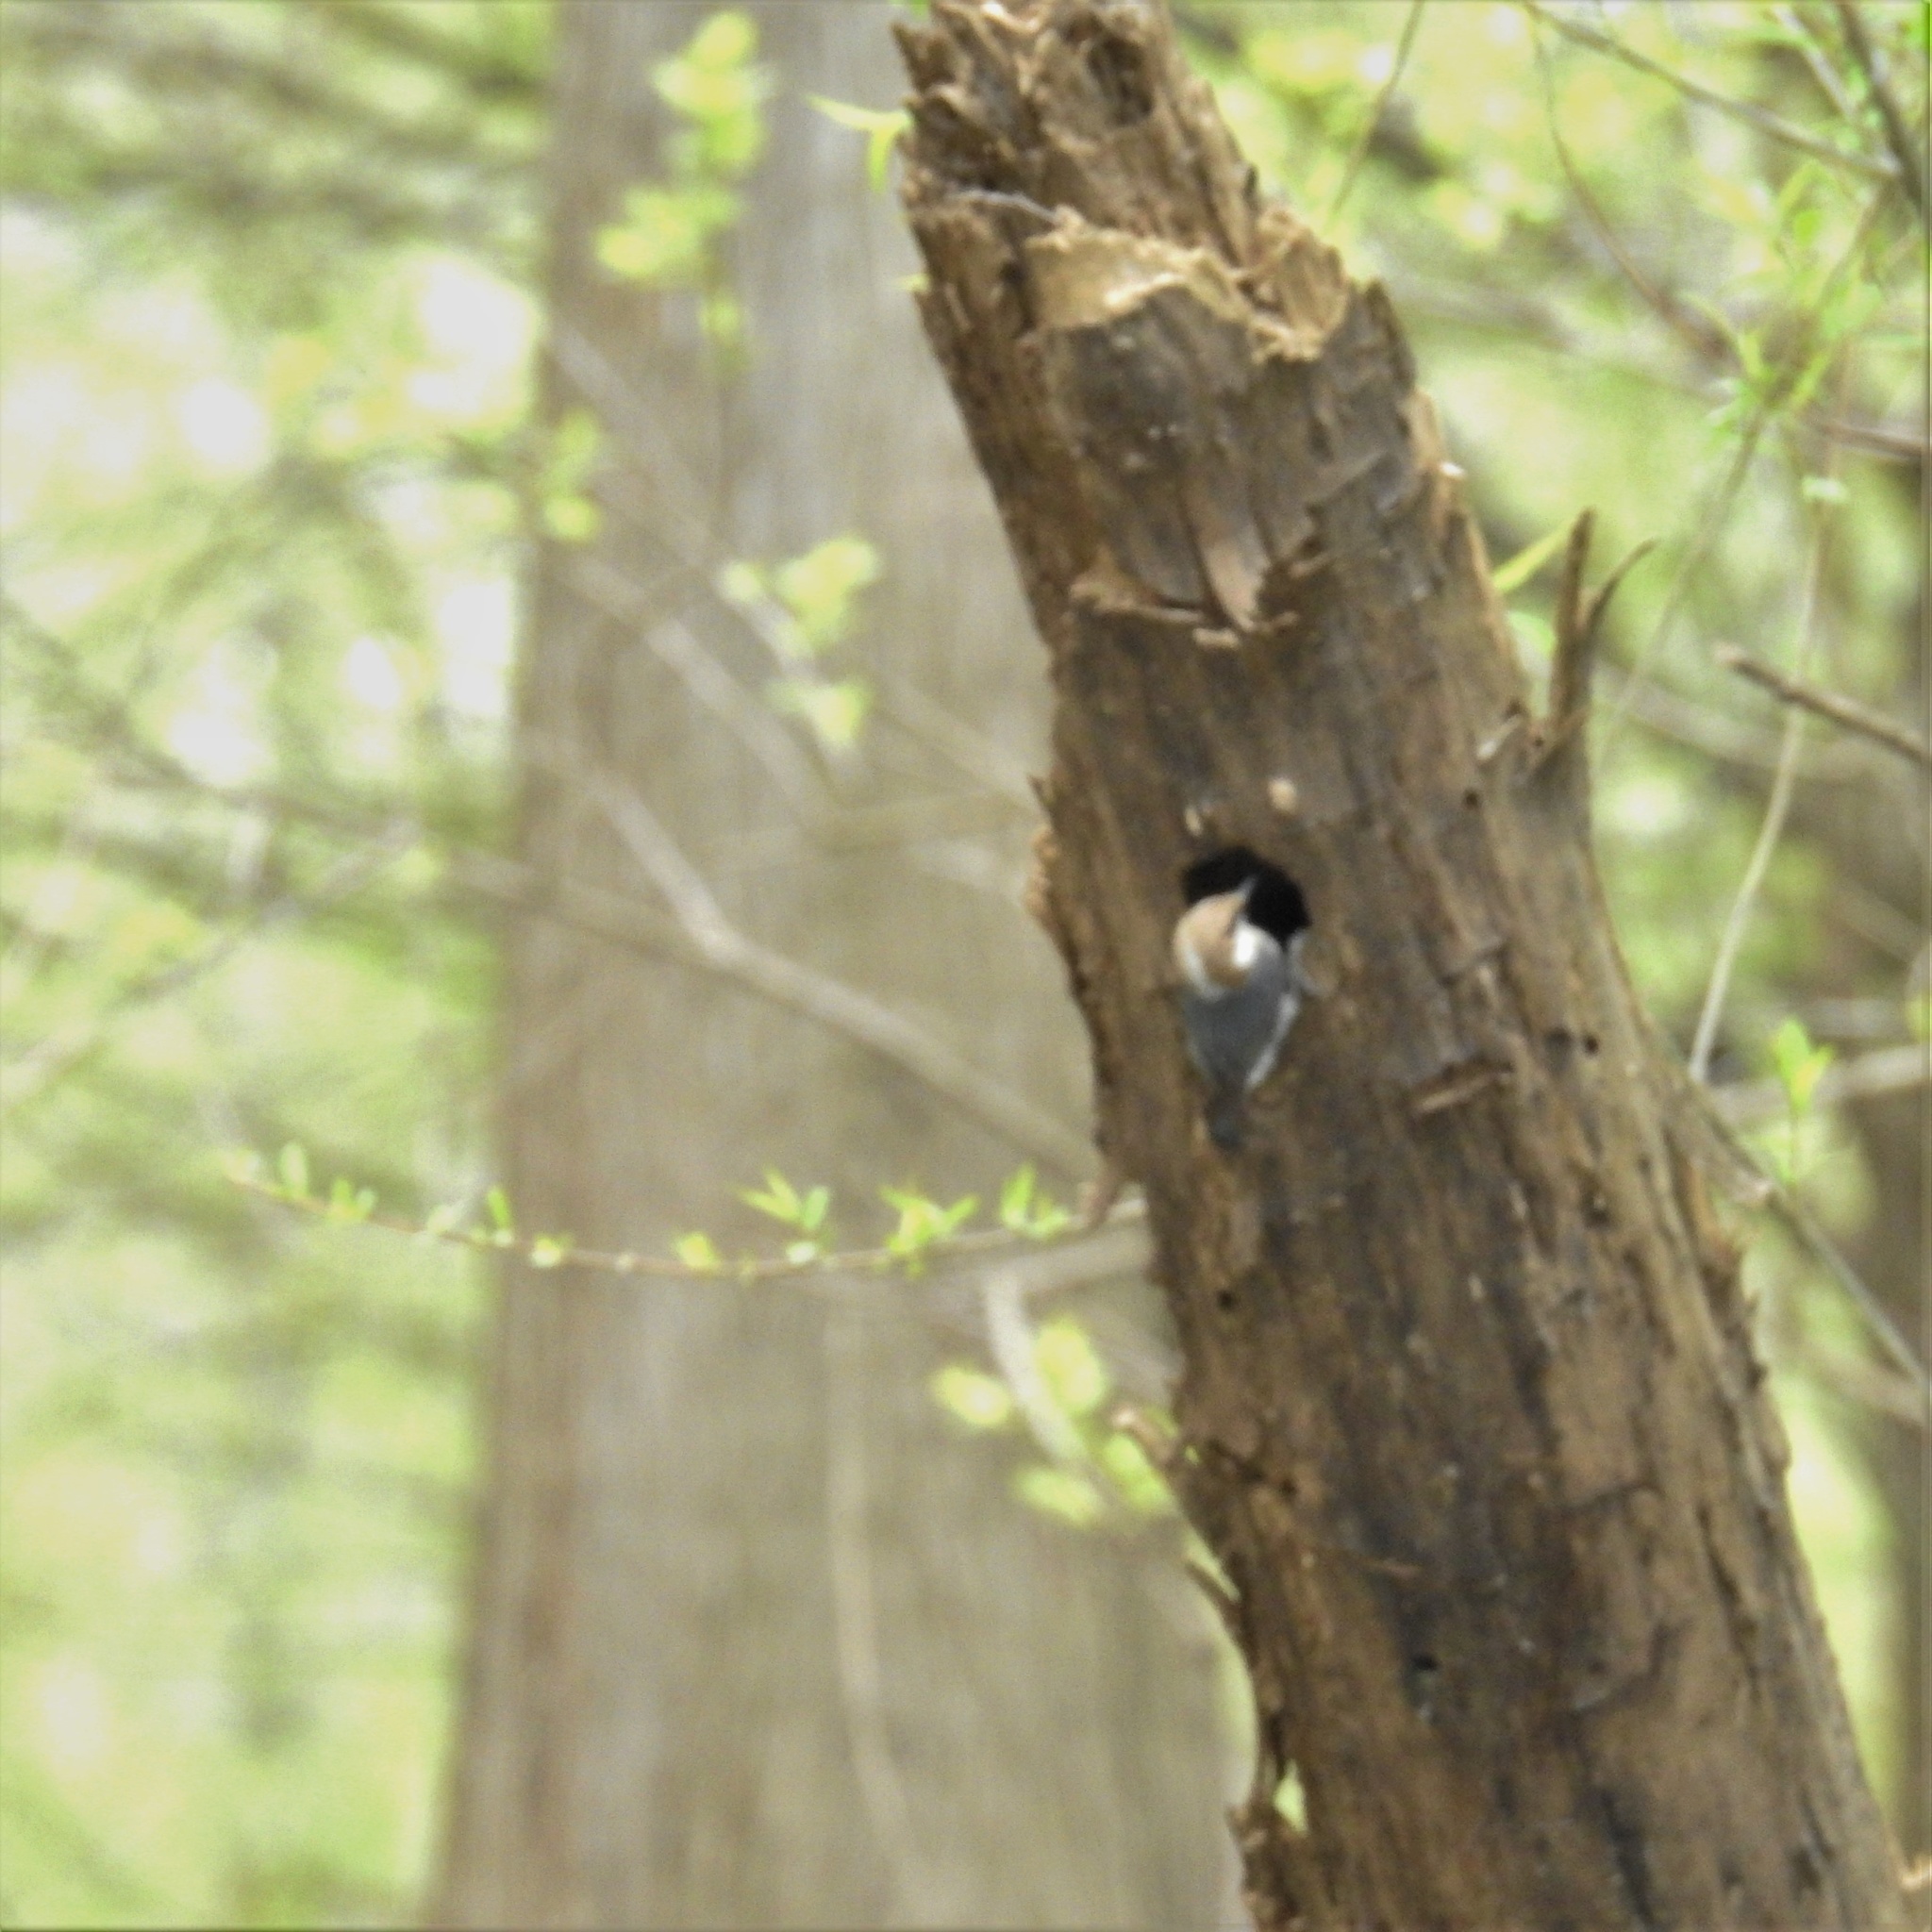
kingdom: Animalia
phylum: Chordata
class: Aves
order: Passeriformes
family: Sittidae
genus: Sitta
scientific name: Sitta pusilla
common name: Brown-headed nuthatch
